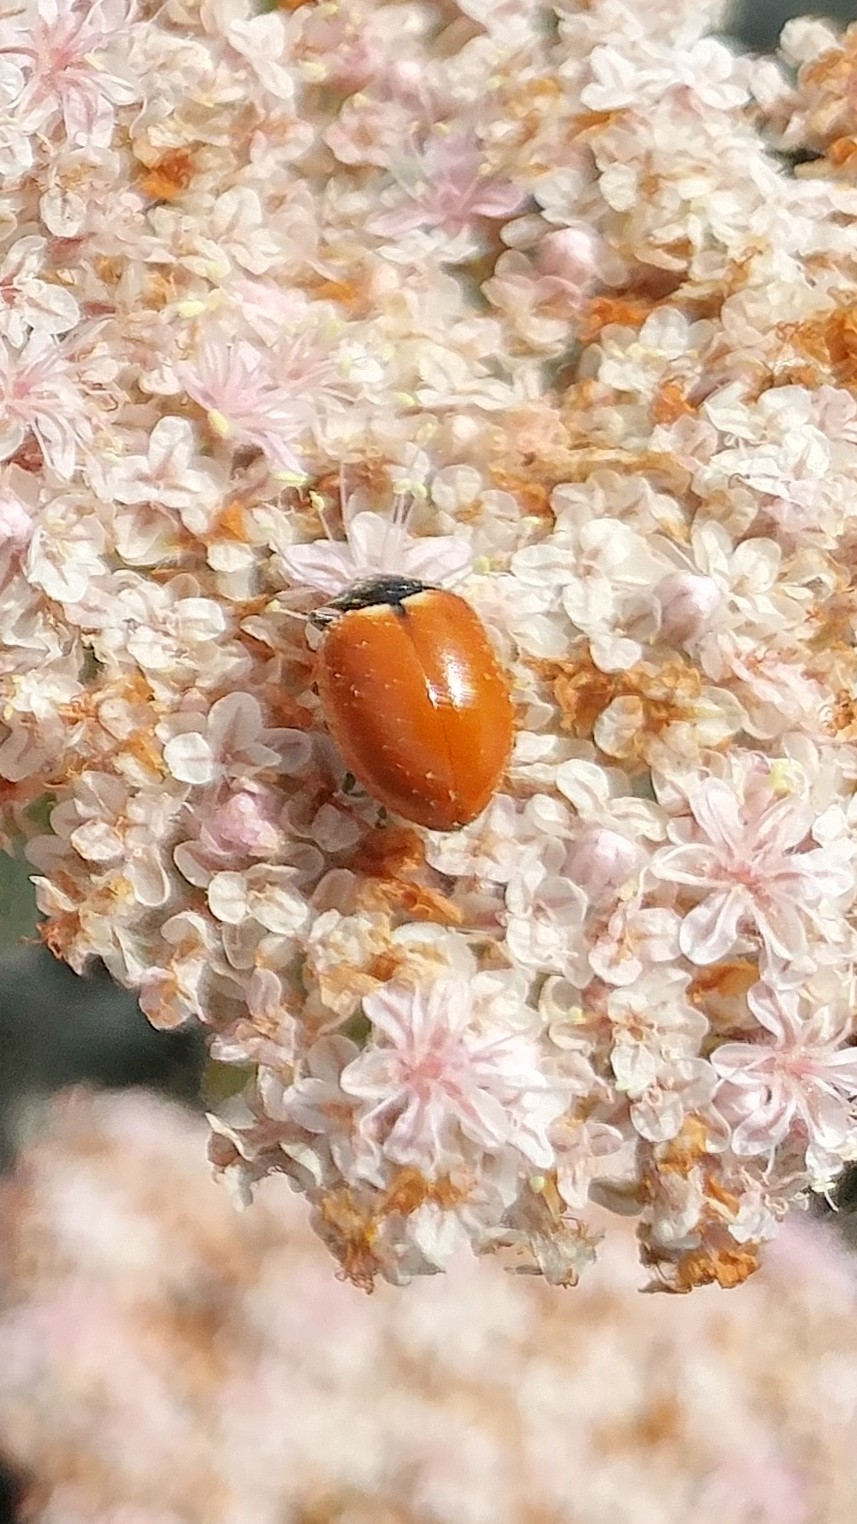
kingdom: Animalia
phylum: Arthropoda
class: Insecta
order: Coleoptera
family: Coccinellidae
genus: Hippodamia
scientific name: Hippodamia quinquesignata
